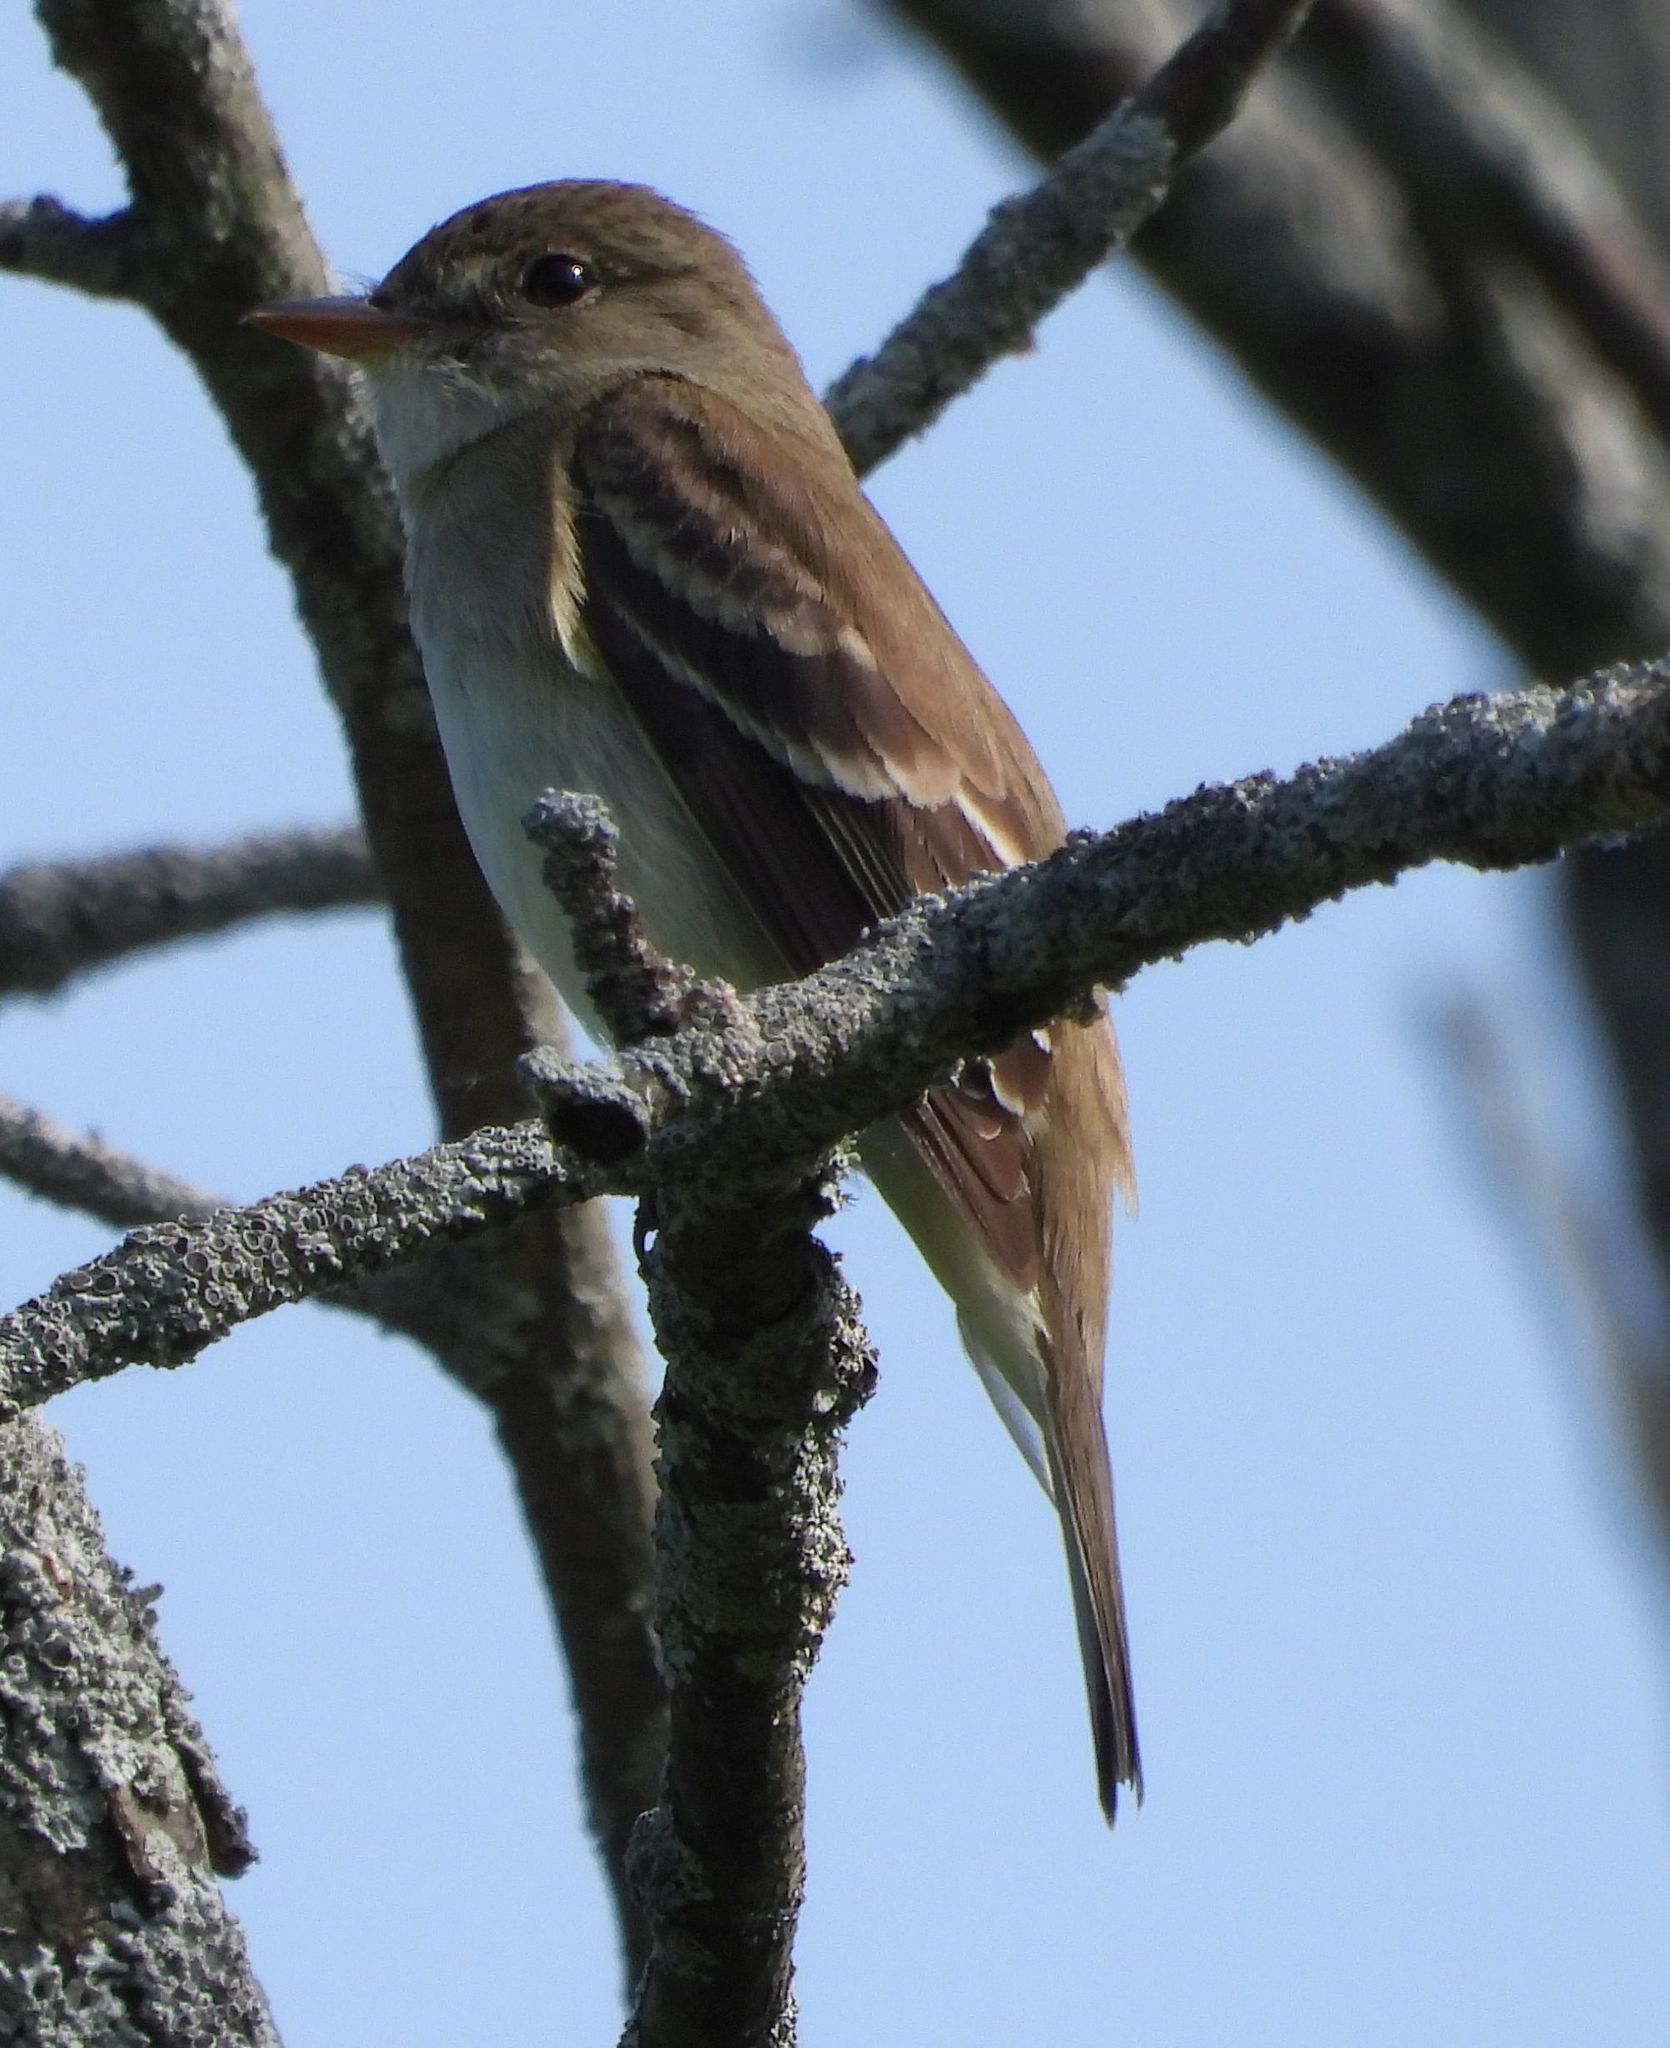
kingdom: Animalia
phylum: Chordata
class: Aves
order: Passeriformes
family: Tyrannidae
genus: Empidonax
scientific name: Empidonax alnorum
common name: Alder flycatcher
